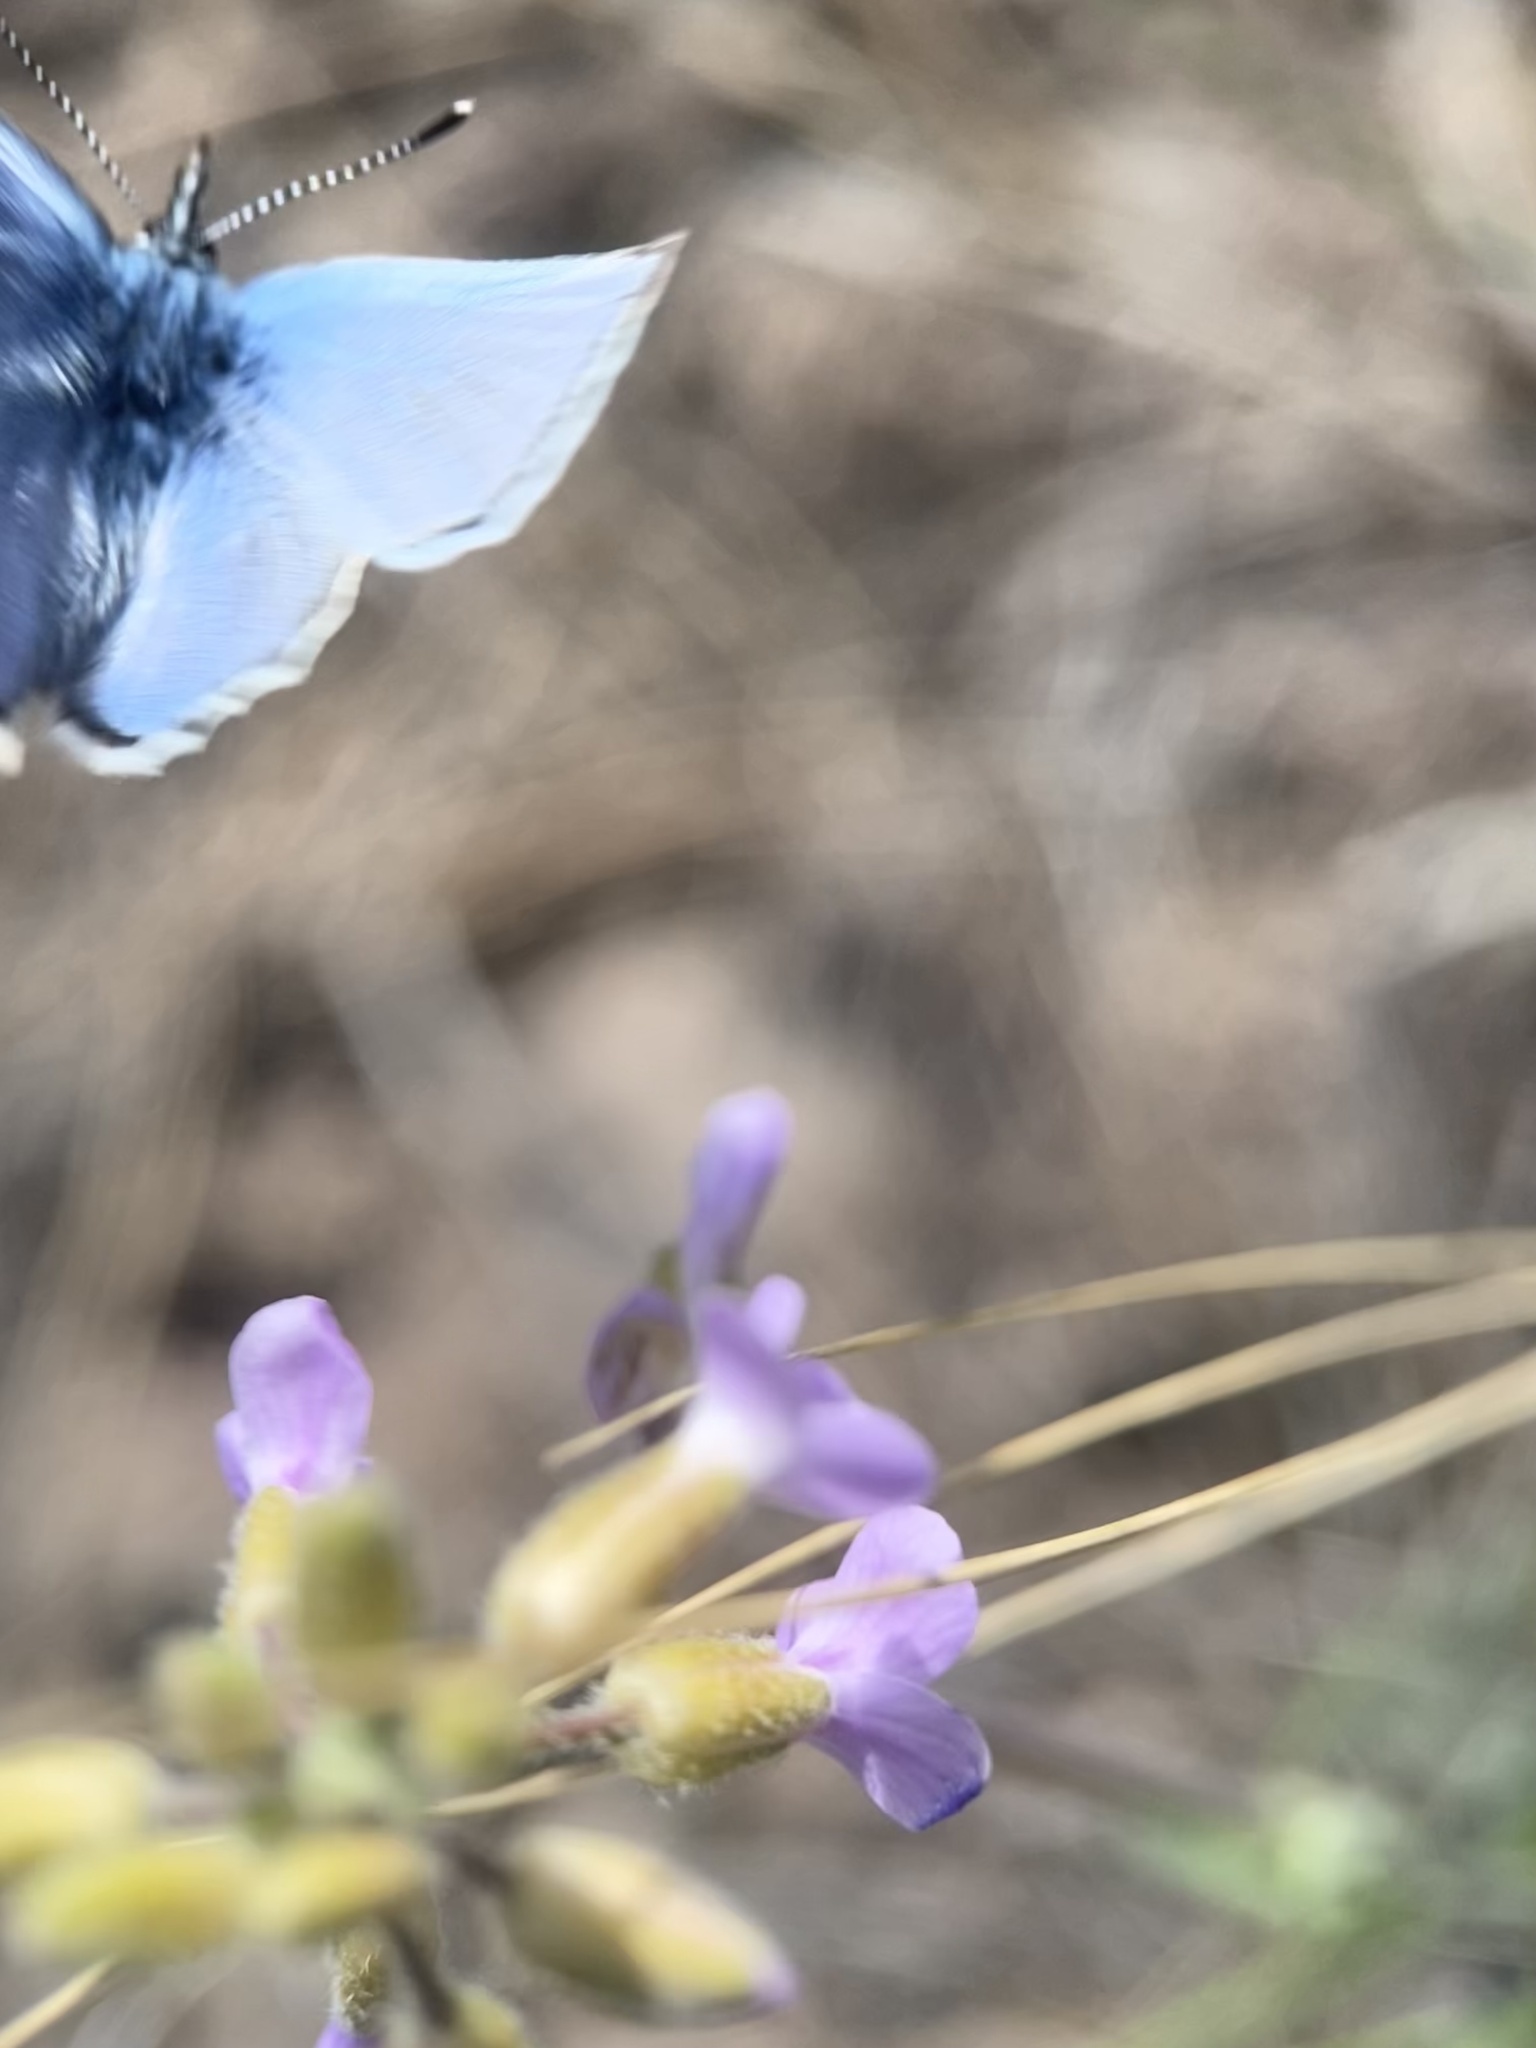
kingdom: Animalia
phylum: Arthropoda
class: Insecta
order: Lepidoptera
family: Lycaenidae
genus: Glaucopsyche
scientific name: Glaucopsyche lygdamus
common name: Silvery blue
